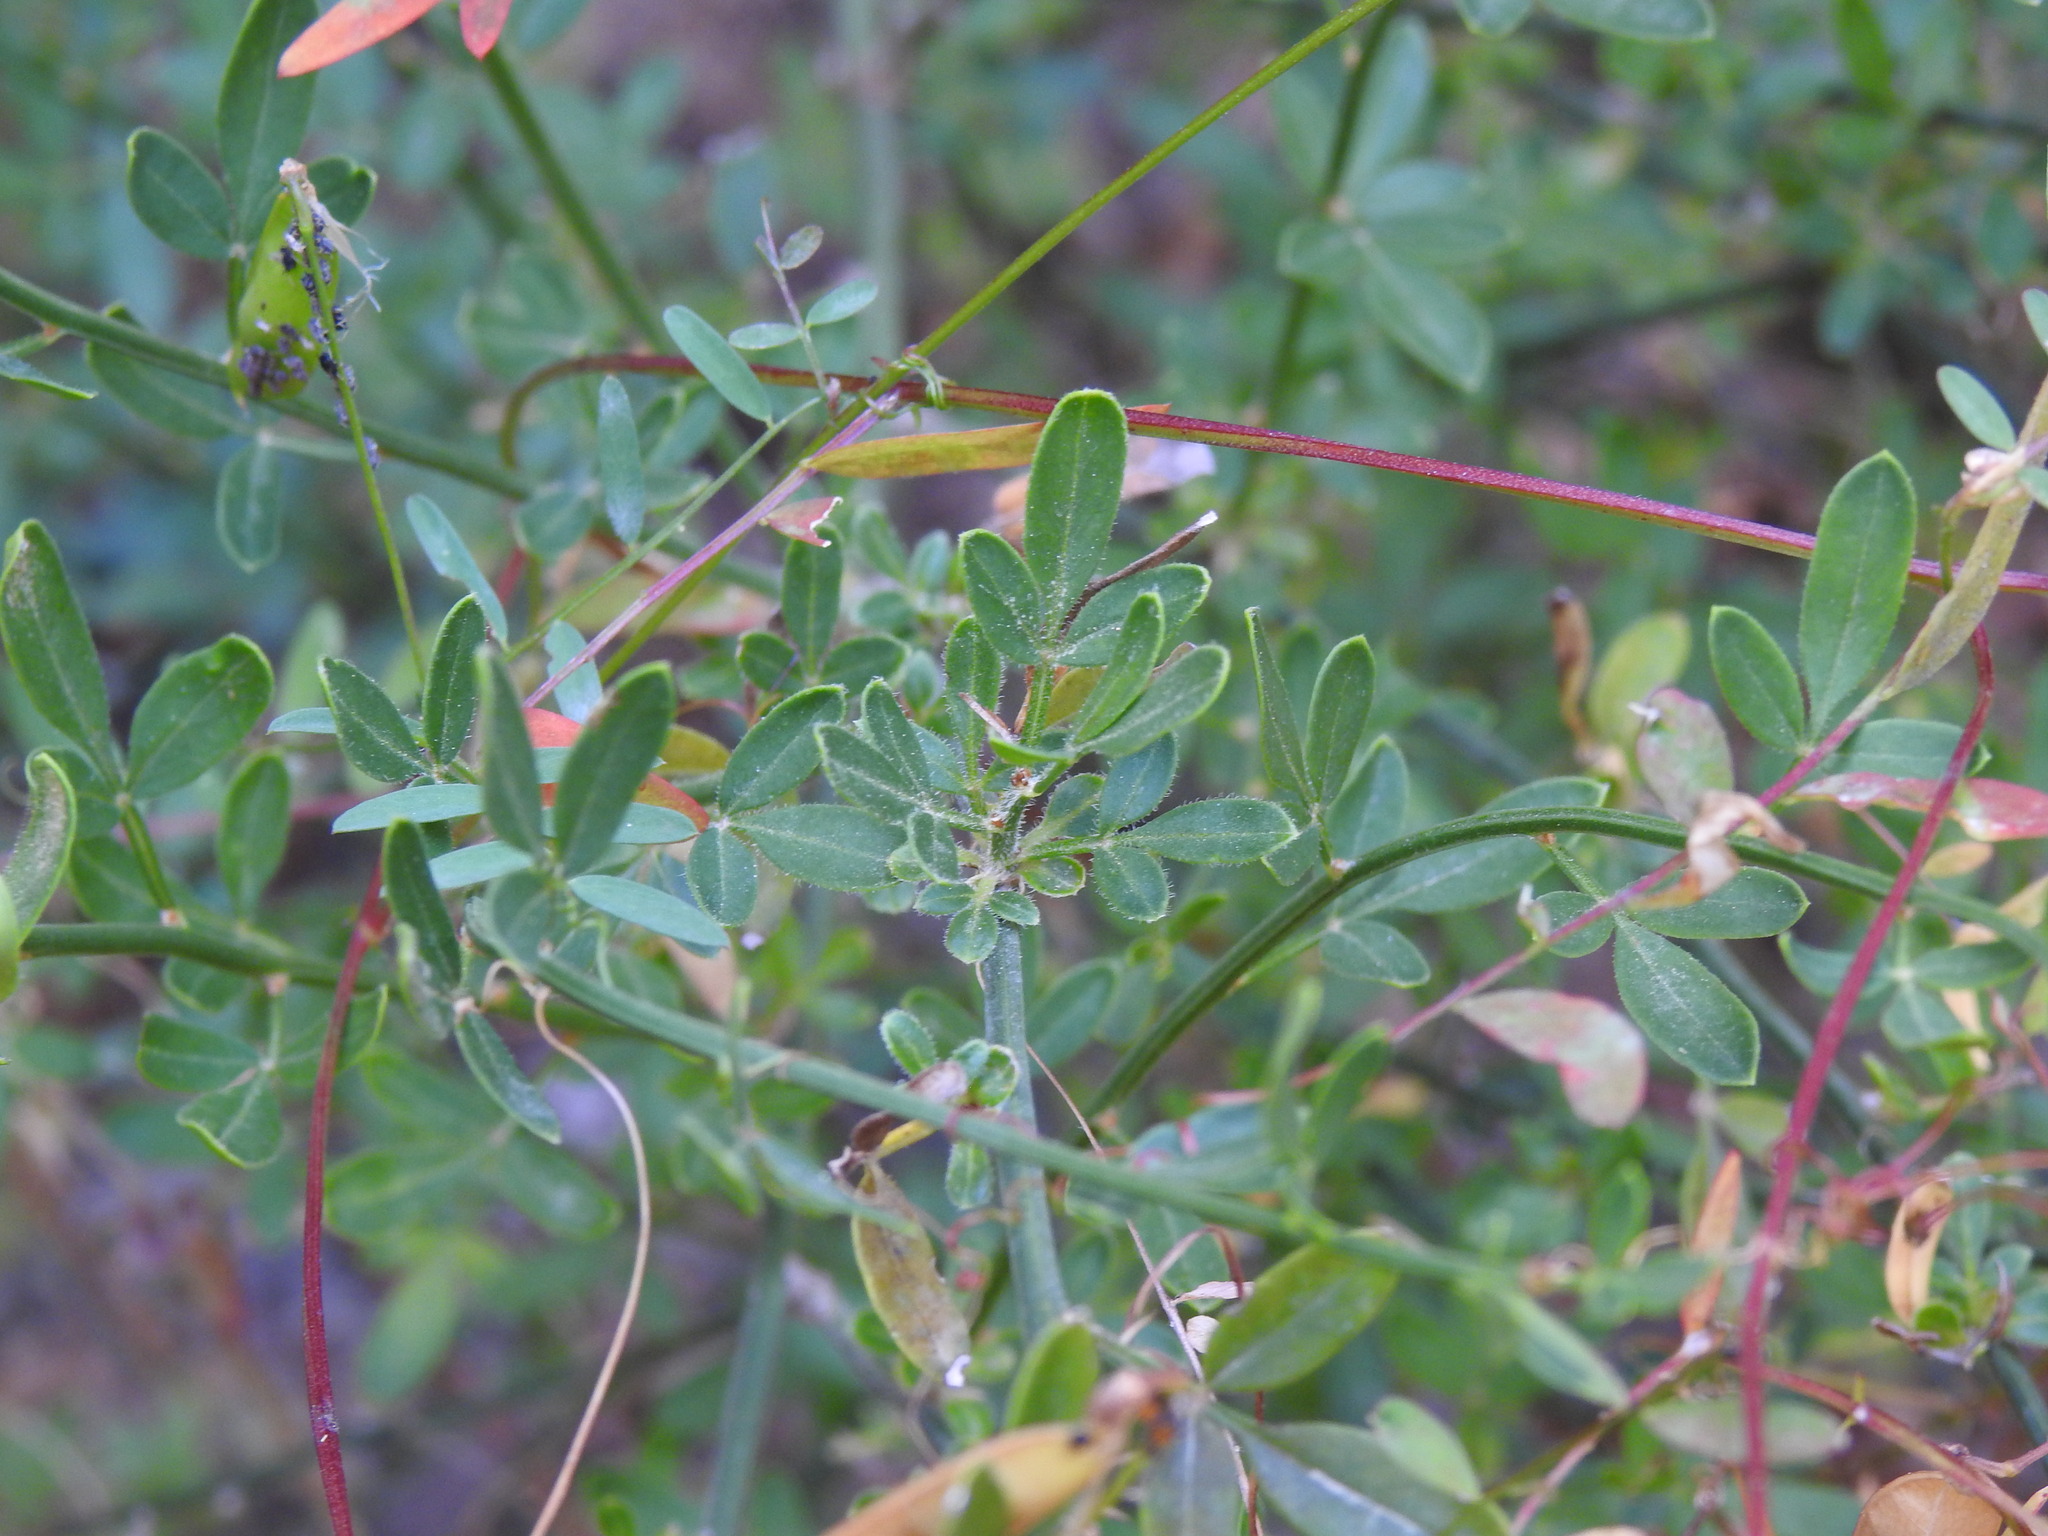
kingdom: Plantae
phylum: Tracheophyta
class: Magnoliopsida
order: Lamiales
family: Oleaceae
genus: Chrysojasminum
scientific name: Chrysojasminum fruticans
